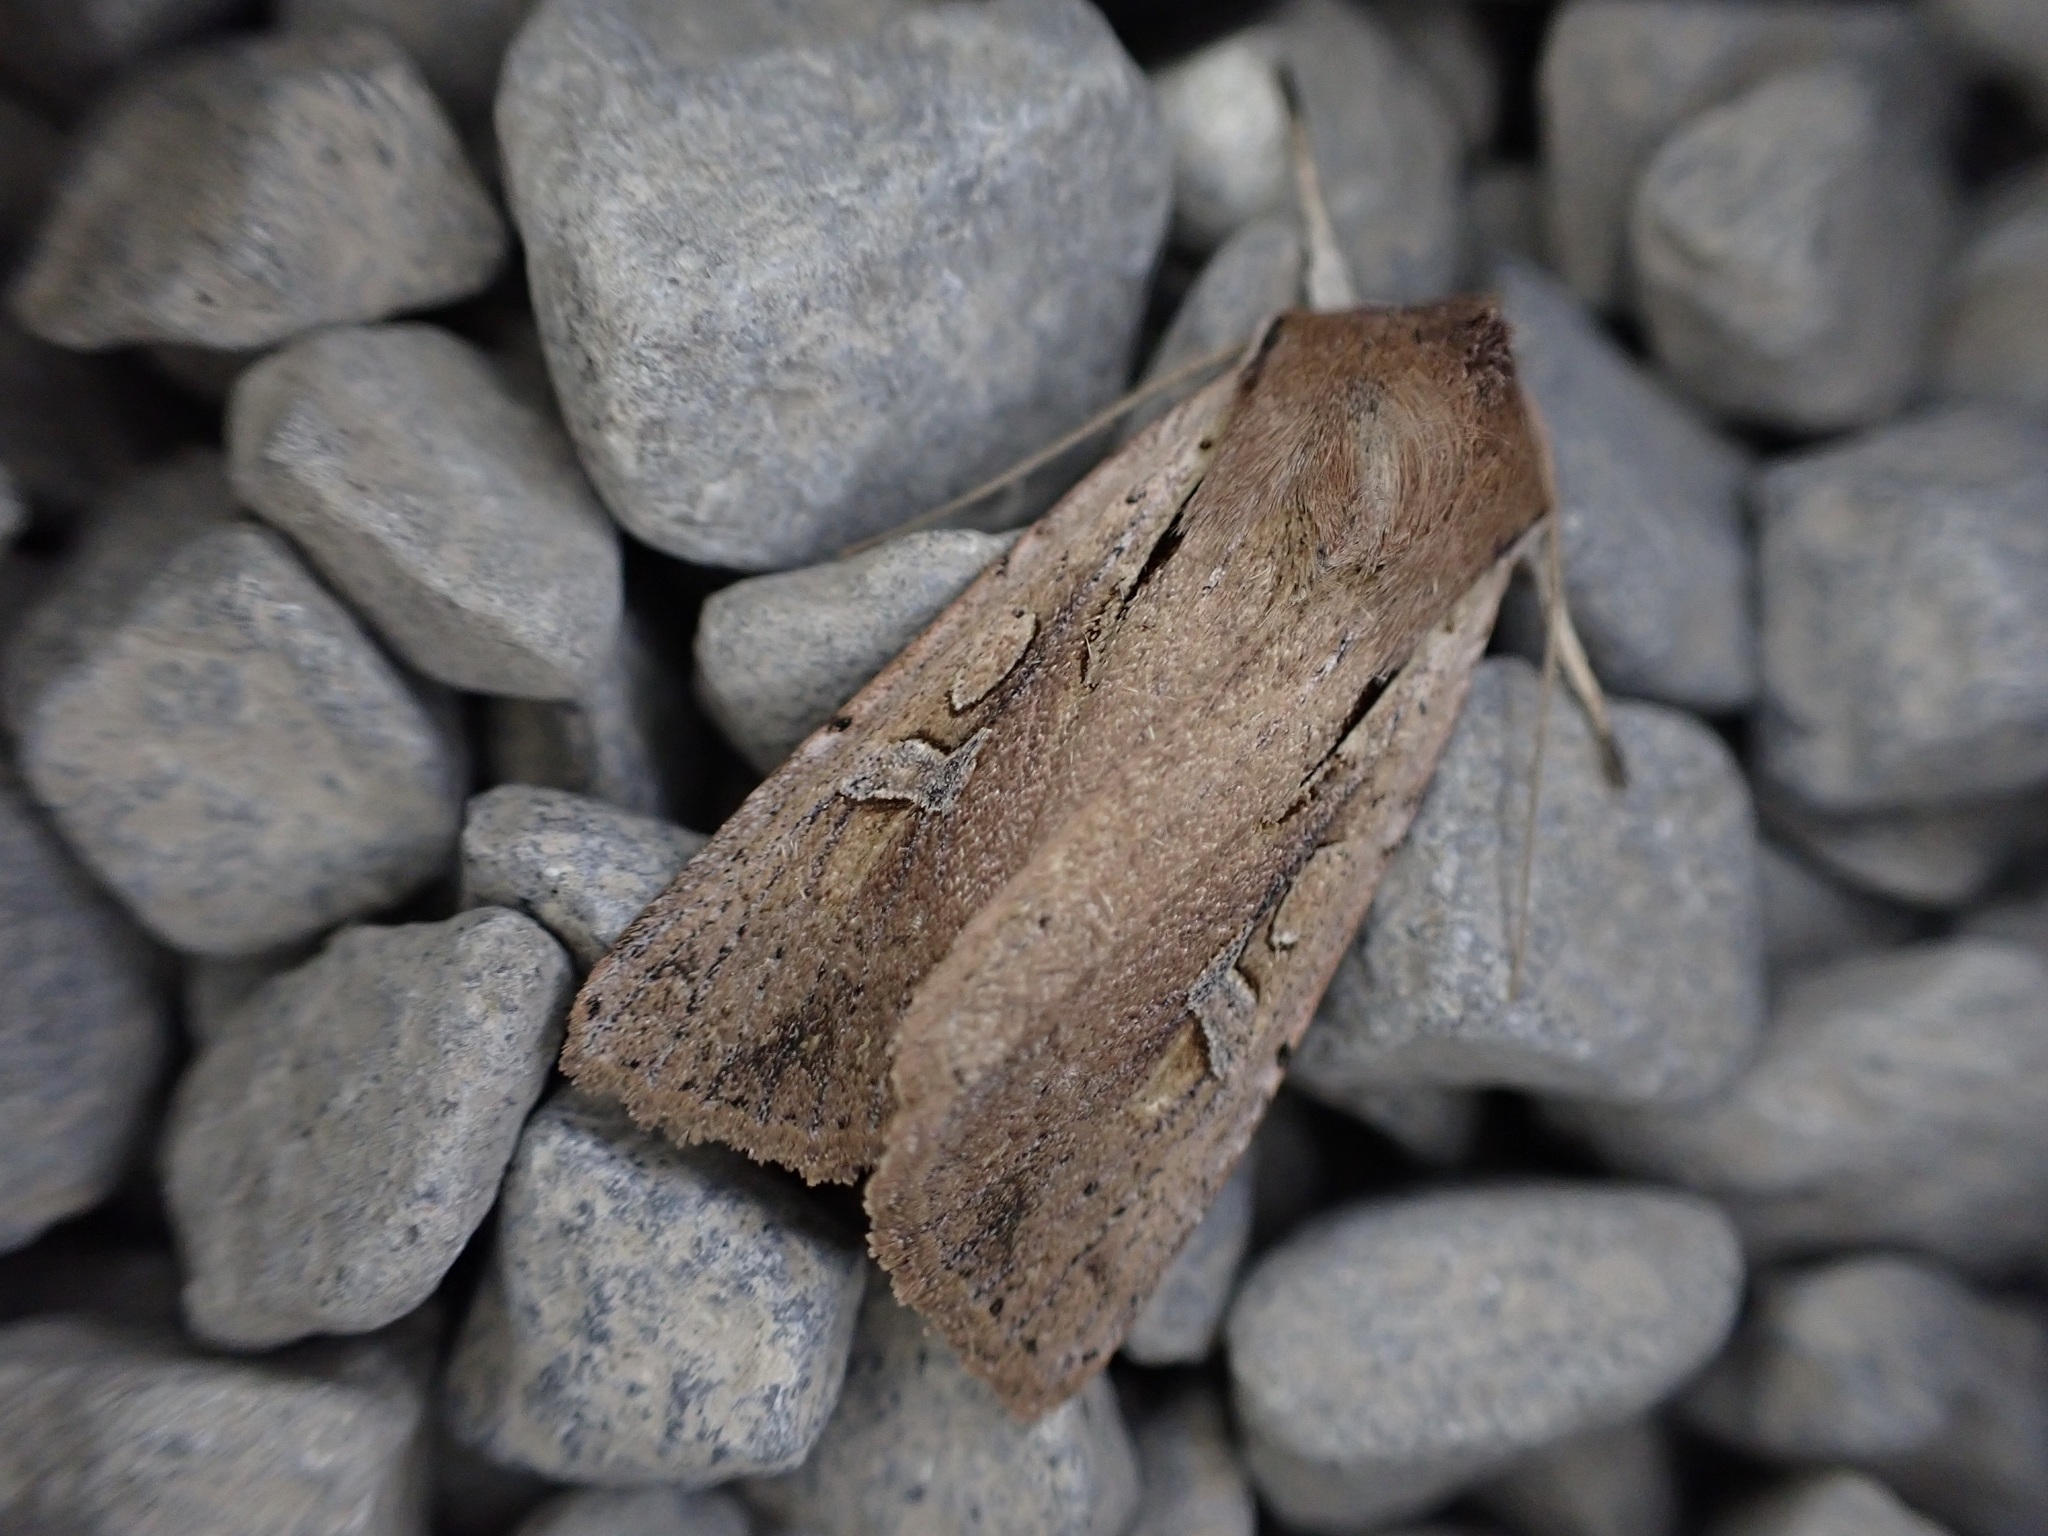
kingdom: Animalia
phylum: Arthropoda
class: Insecta
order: Lepidoptera
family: Noctuidae
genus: Ichneutica
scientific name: Ichneutica atristriga
